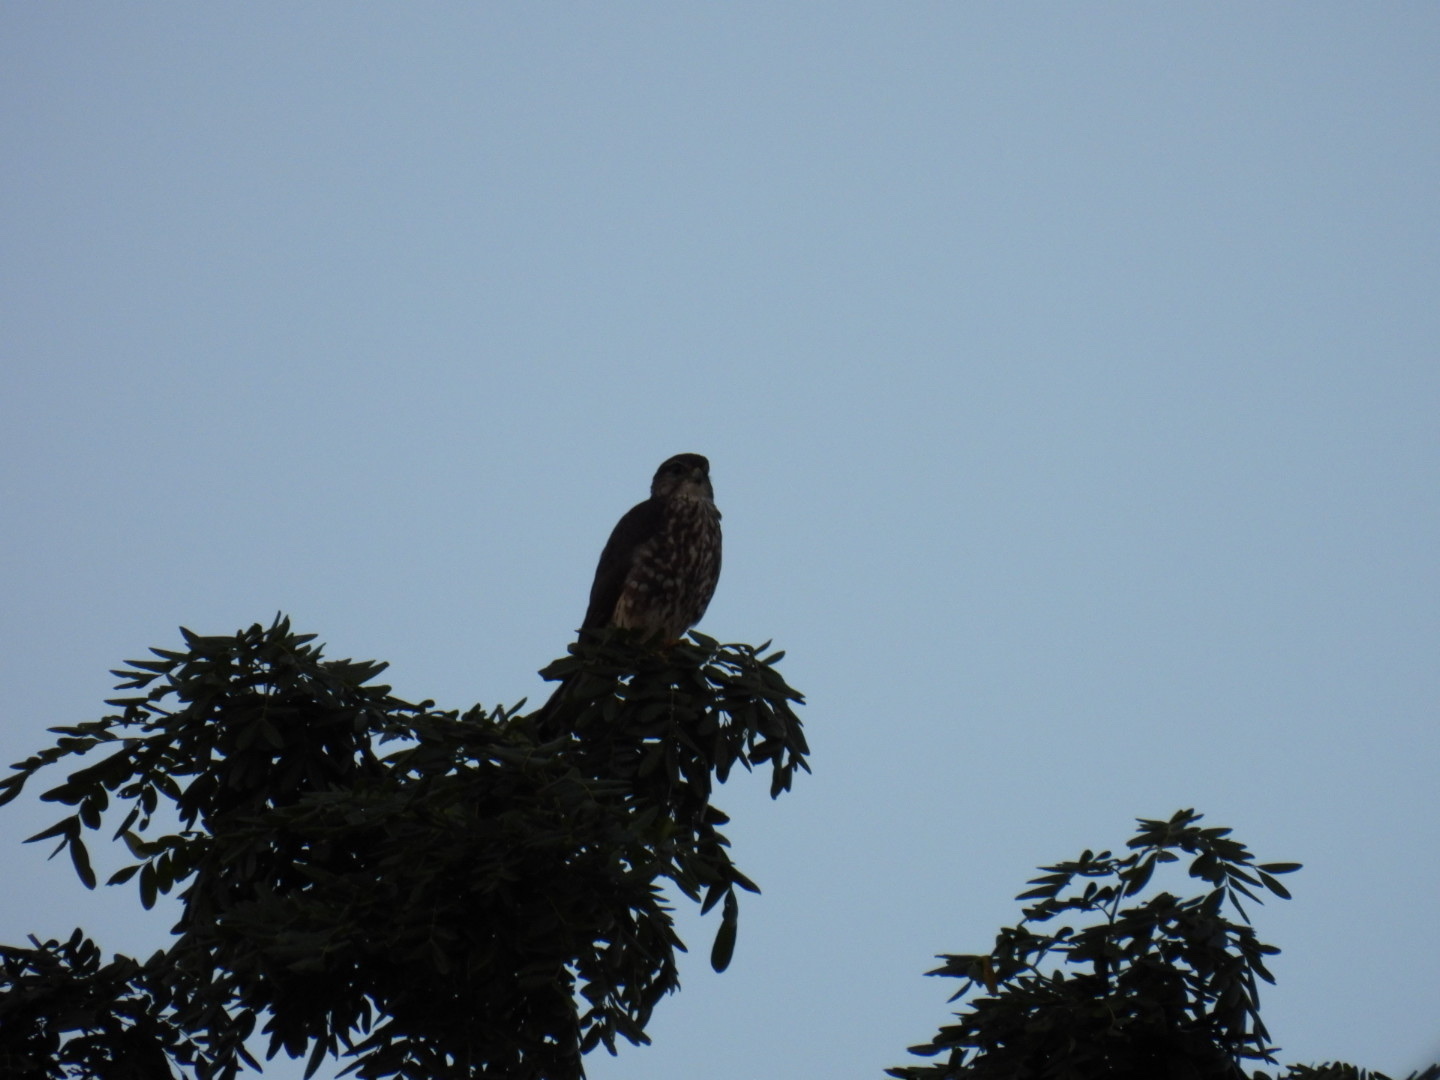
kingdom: Animalia
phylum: Chordata
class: Aves
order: Falconiformes
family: Falconidae
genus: Falco
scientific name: Falco columbarius
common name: Merlin
